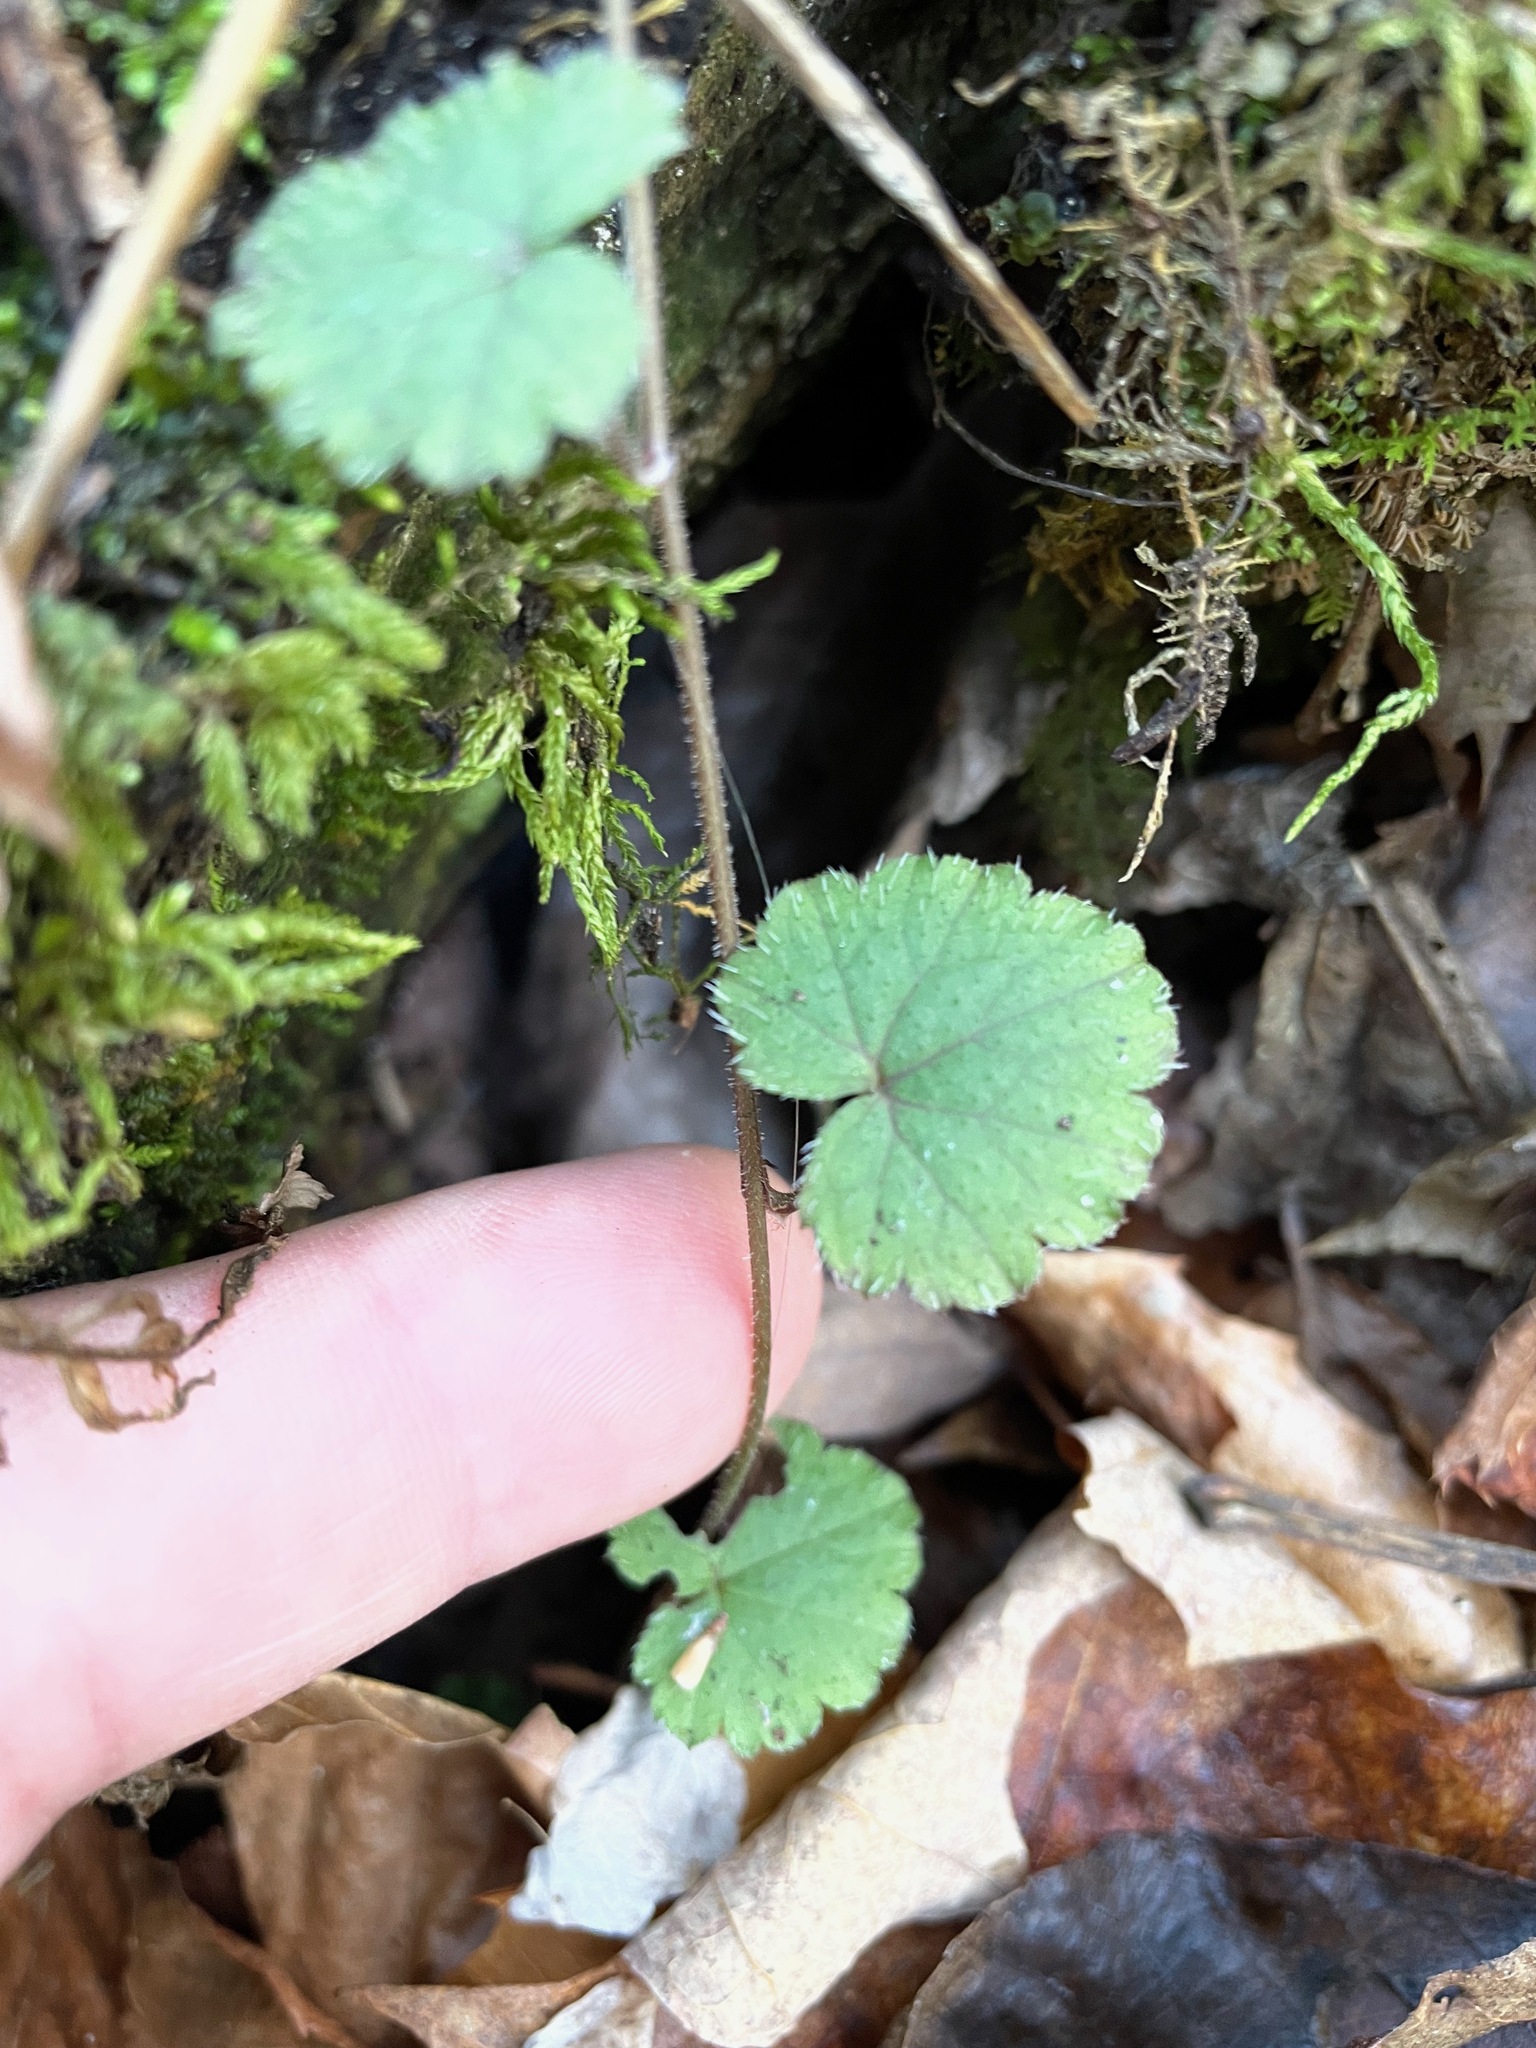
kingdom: Plantae
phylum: Tracheophyta
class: Magnoliopsida
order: Saxifragales
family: Saxifragaceae
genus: Tiarella
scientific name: Tiarella stolonifera
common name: Stoloniferous foamflower
